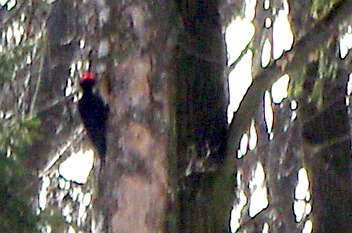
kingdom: Animalia
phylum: Chordata
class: Aves
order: Piciformes
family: Picidae
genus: Dryocopus
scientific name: Dryocopus martius
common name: Black woodpecker
